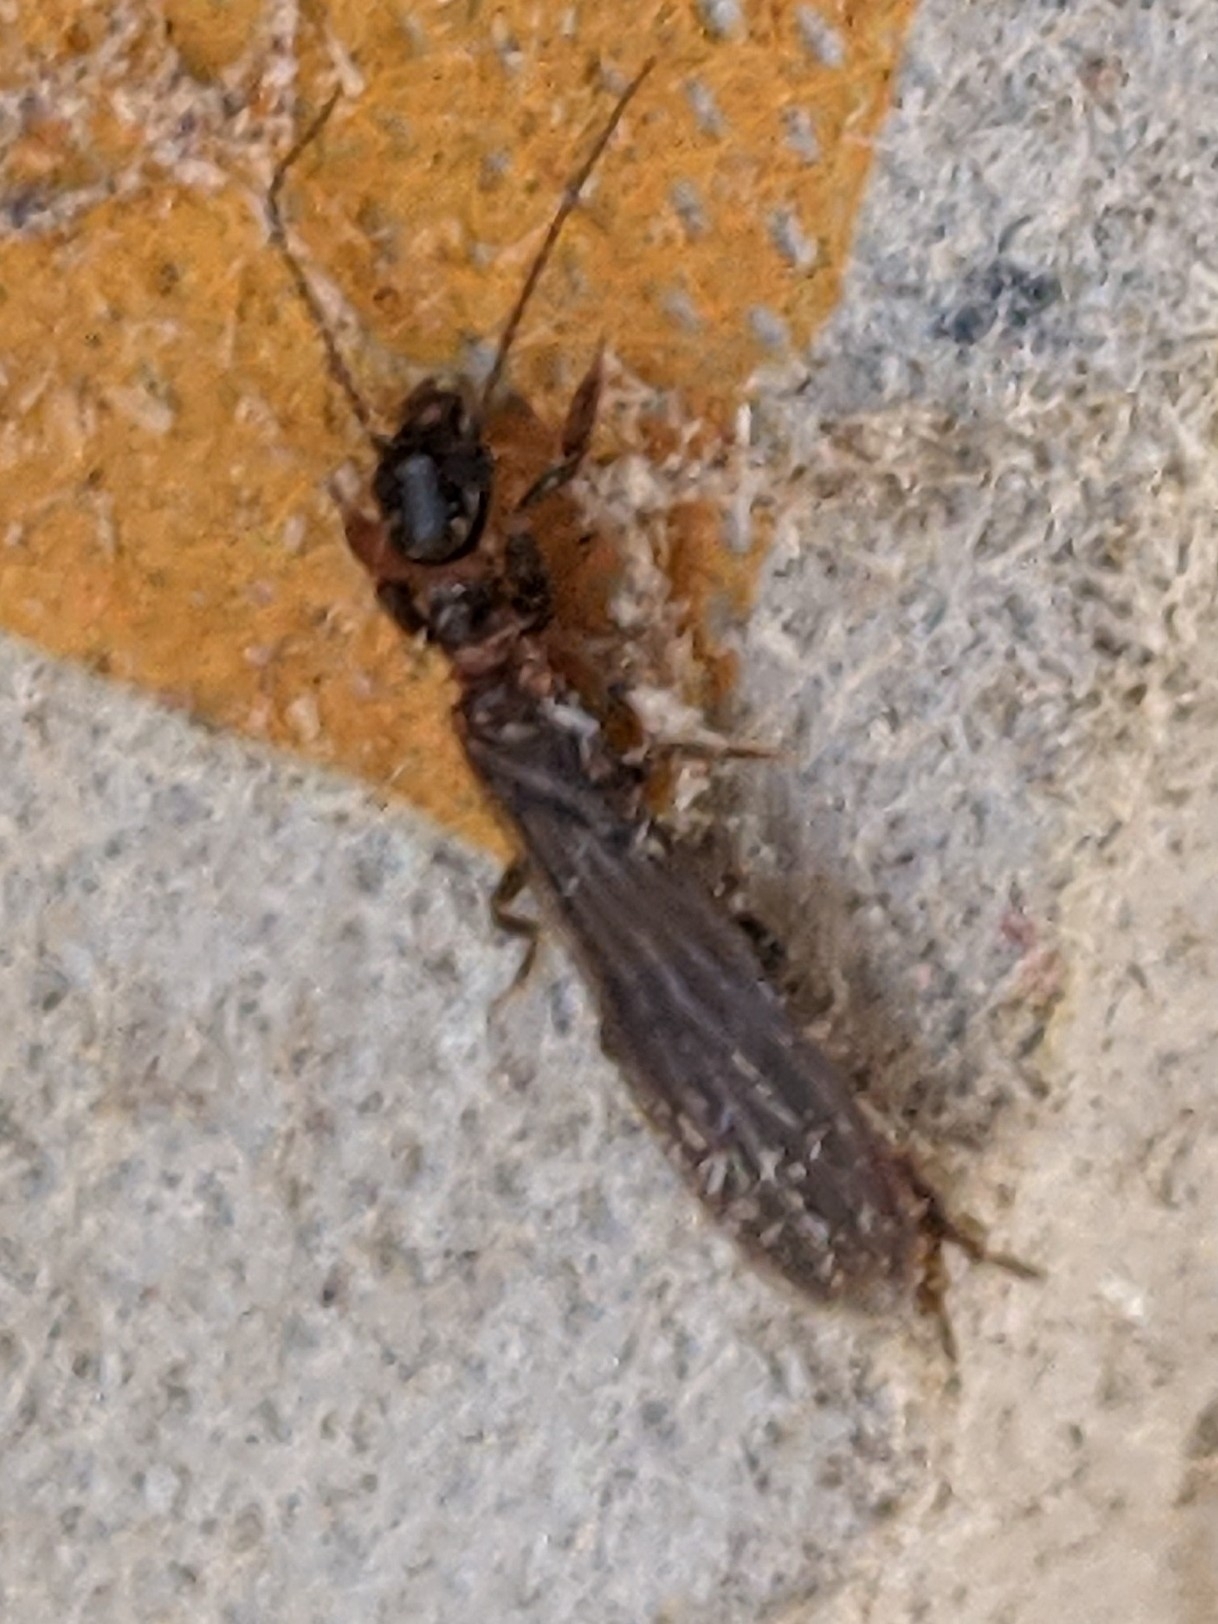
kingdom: Animalia
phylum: Arthropoda
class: Insecta
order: Embioptera
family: Oligotomidae
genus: Oligotoma
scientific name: Oligotoma nigra
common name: Black webspinner
